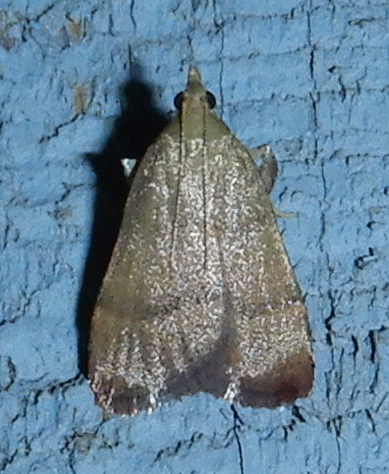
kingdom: Animalia
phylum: Arthropoda
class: Insecta
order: Lepidoptera
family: Pyralidae
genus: Condylolomia
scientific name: Condylolomia participialis
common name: Drab condylolomia moth
